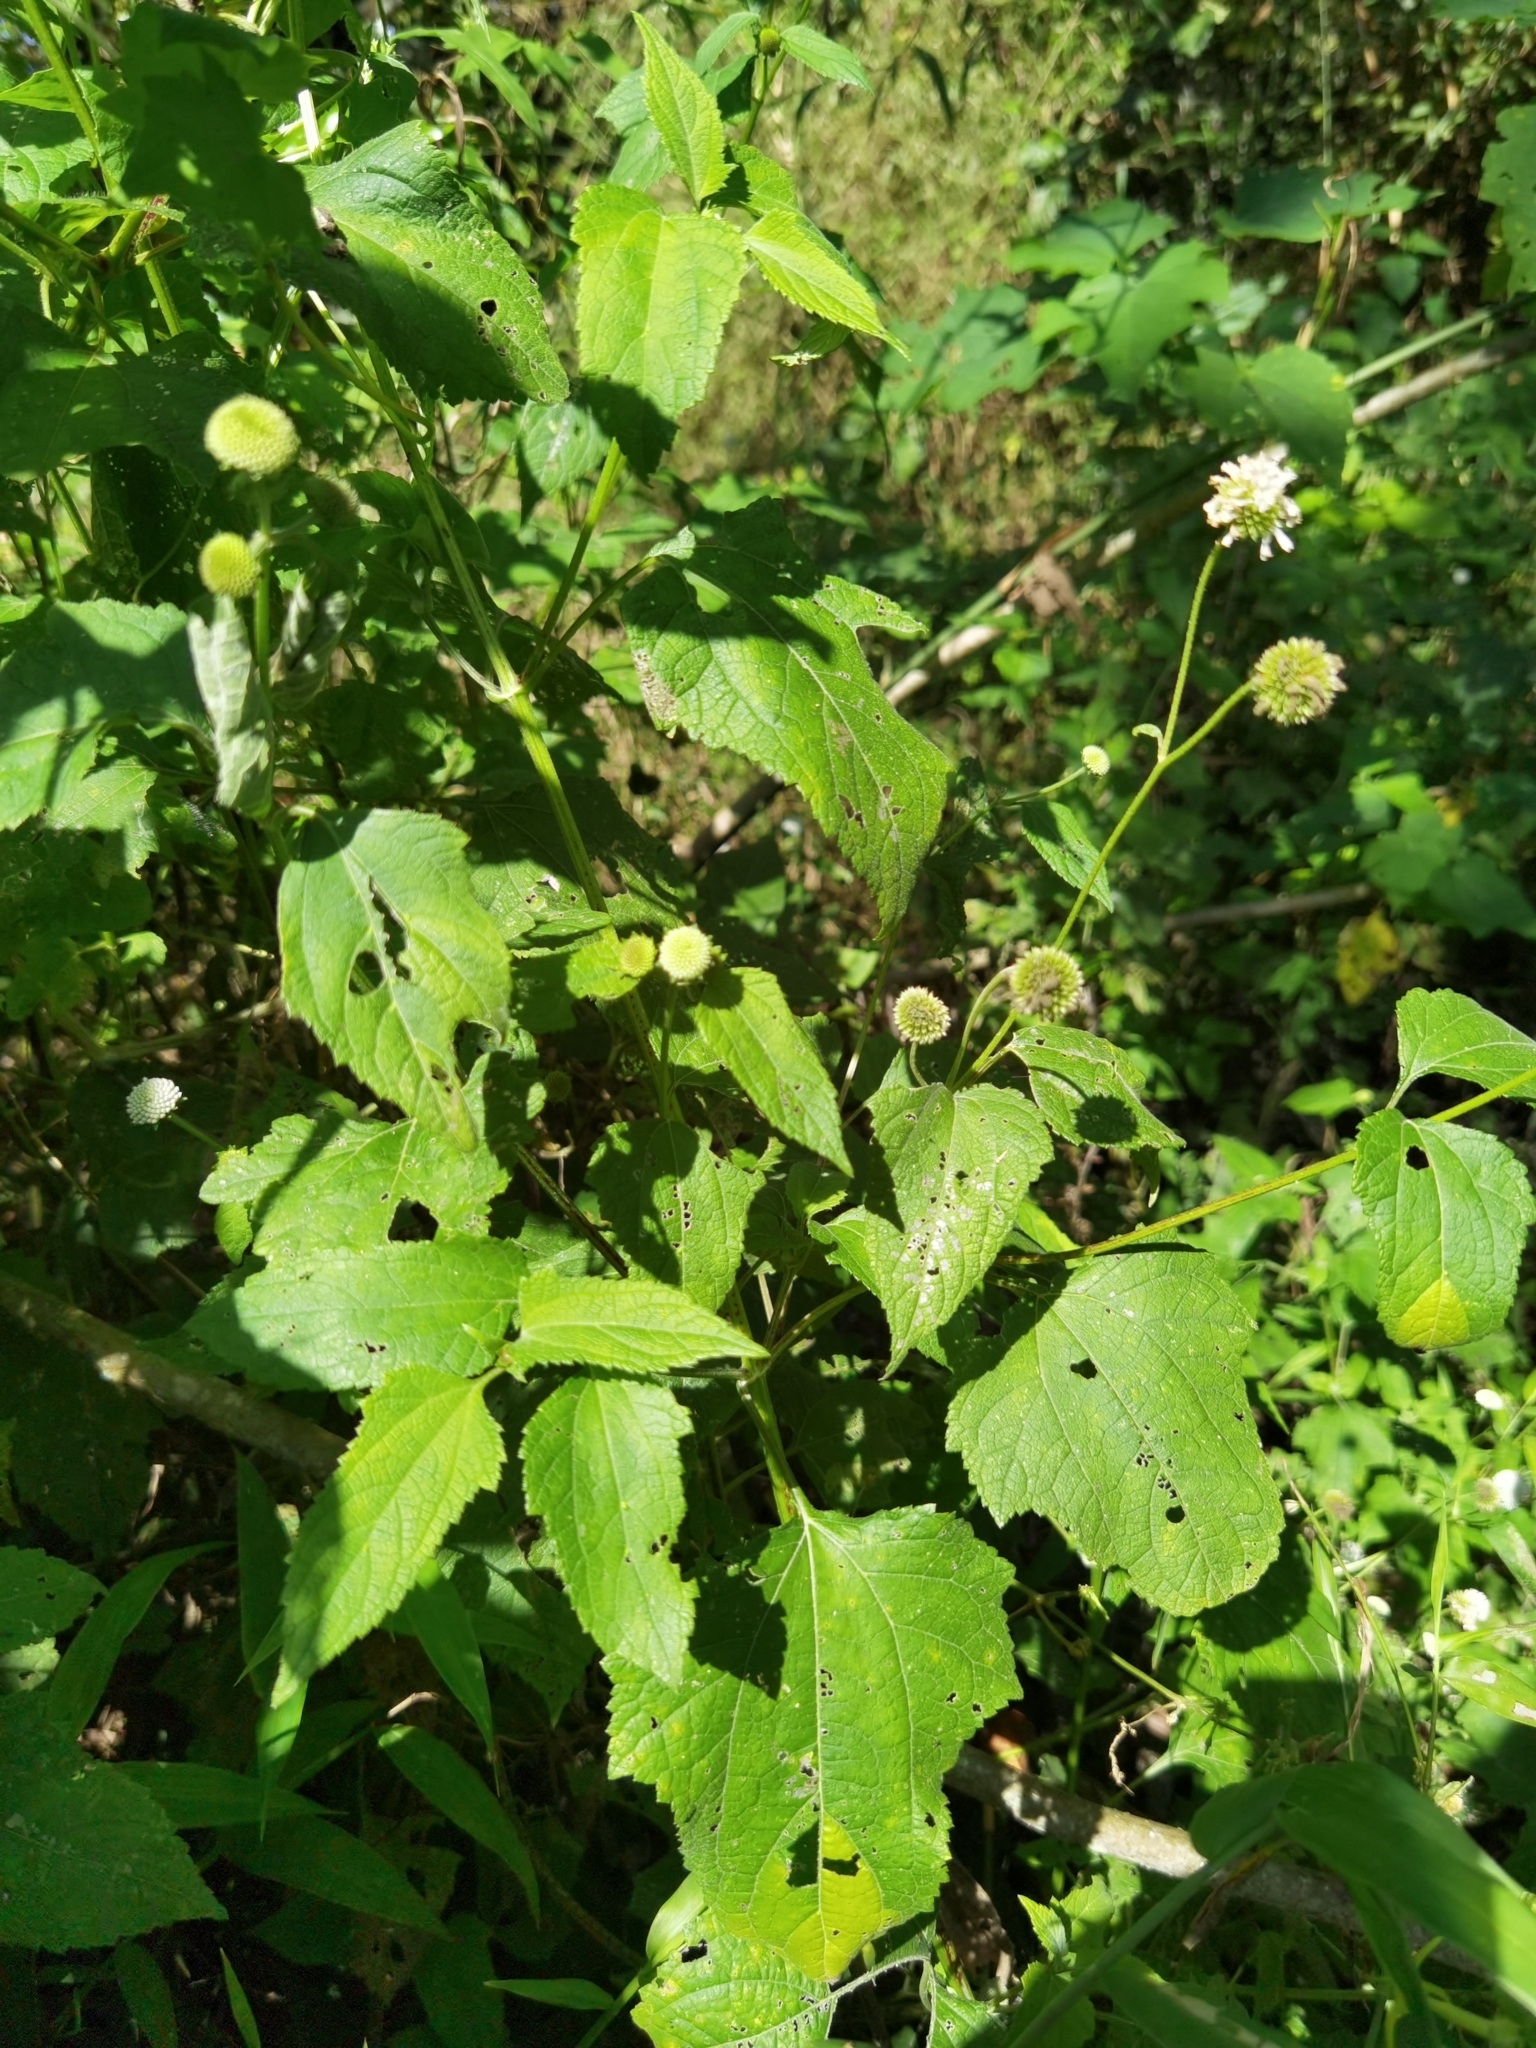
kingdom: Plantae
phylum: Tracheophyta
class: Magnoliopsida
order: Asterales
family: Asteraceae
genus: Melanthera
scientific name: Melanthera nivea
